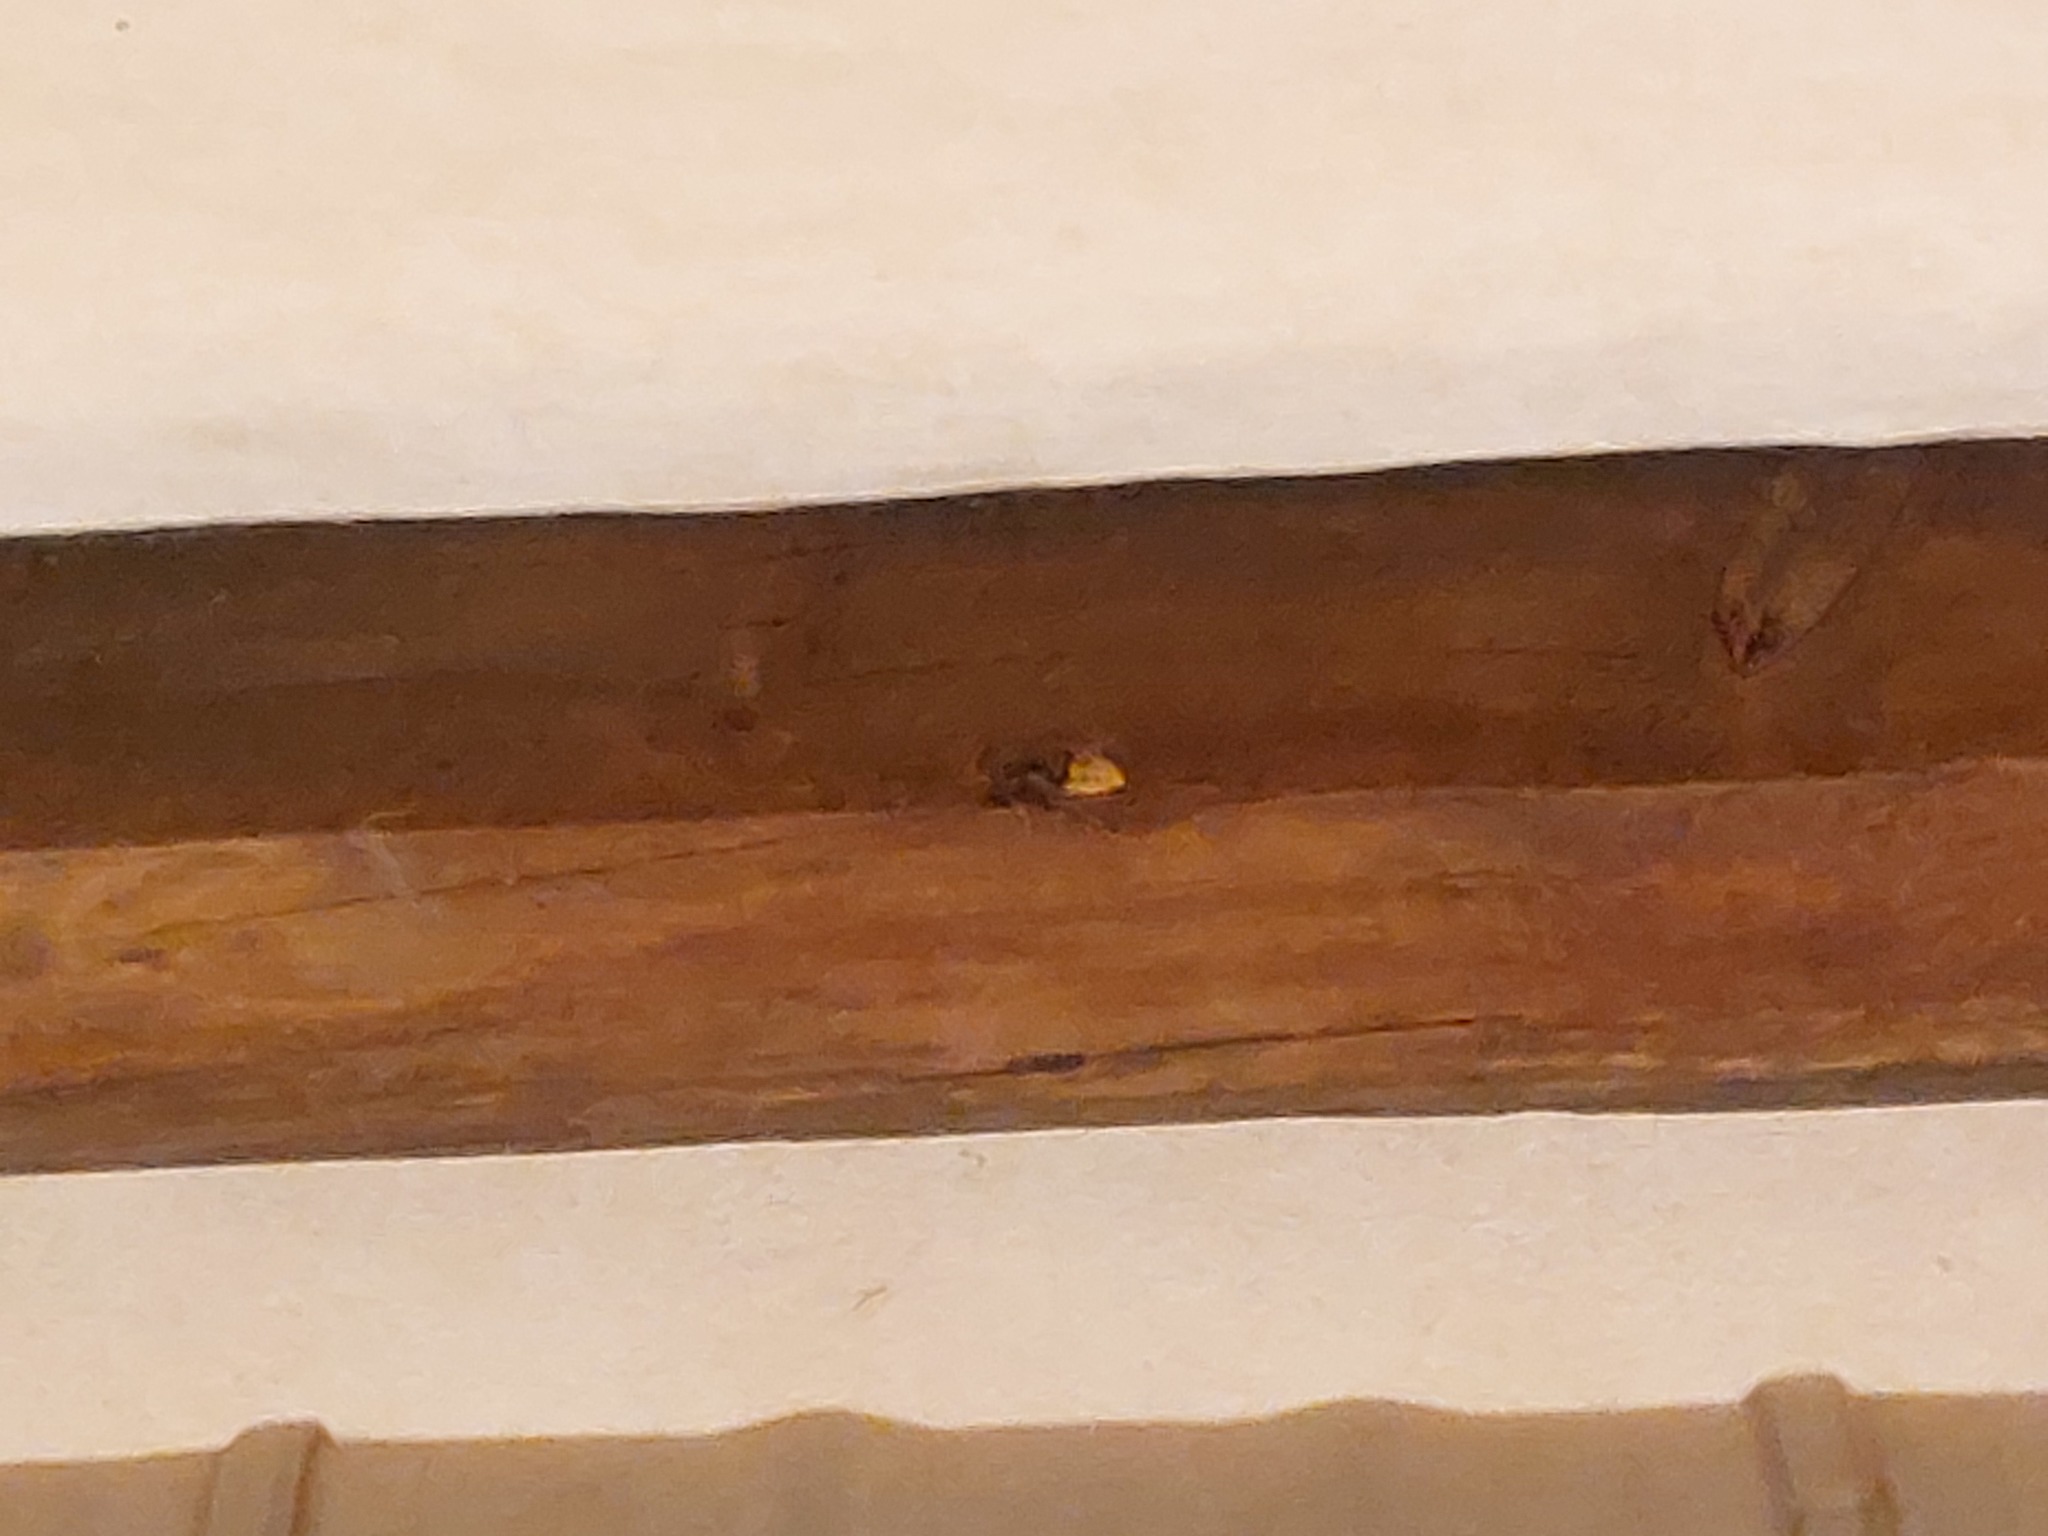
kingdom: Animalia
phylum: Arthropoda
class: Insecta
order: Hymenoptera
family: Vespidae
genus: Vespa
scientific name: Vespa crabro
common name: Hornet
